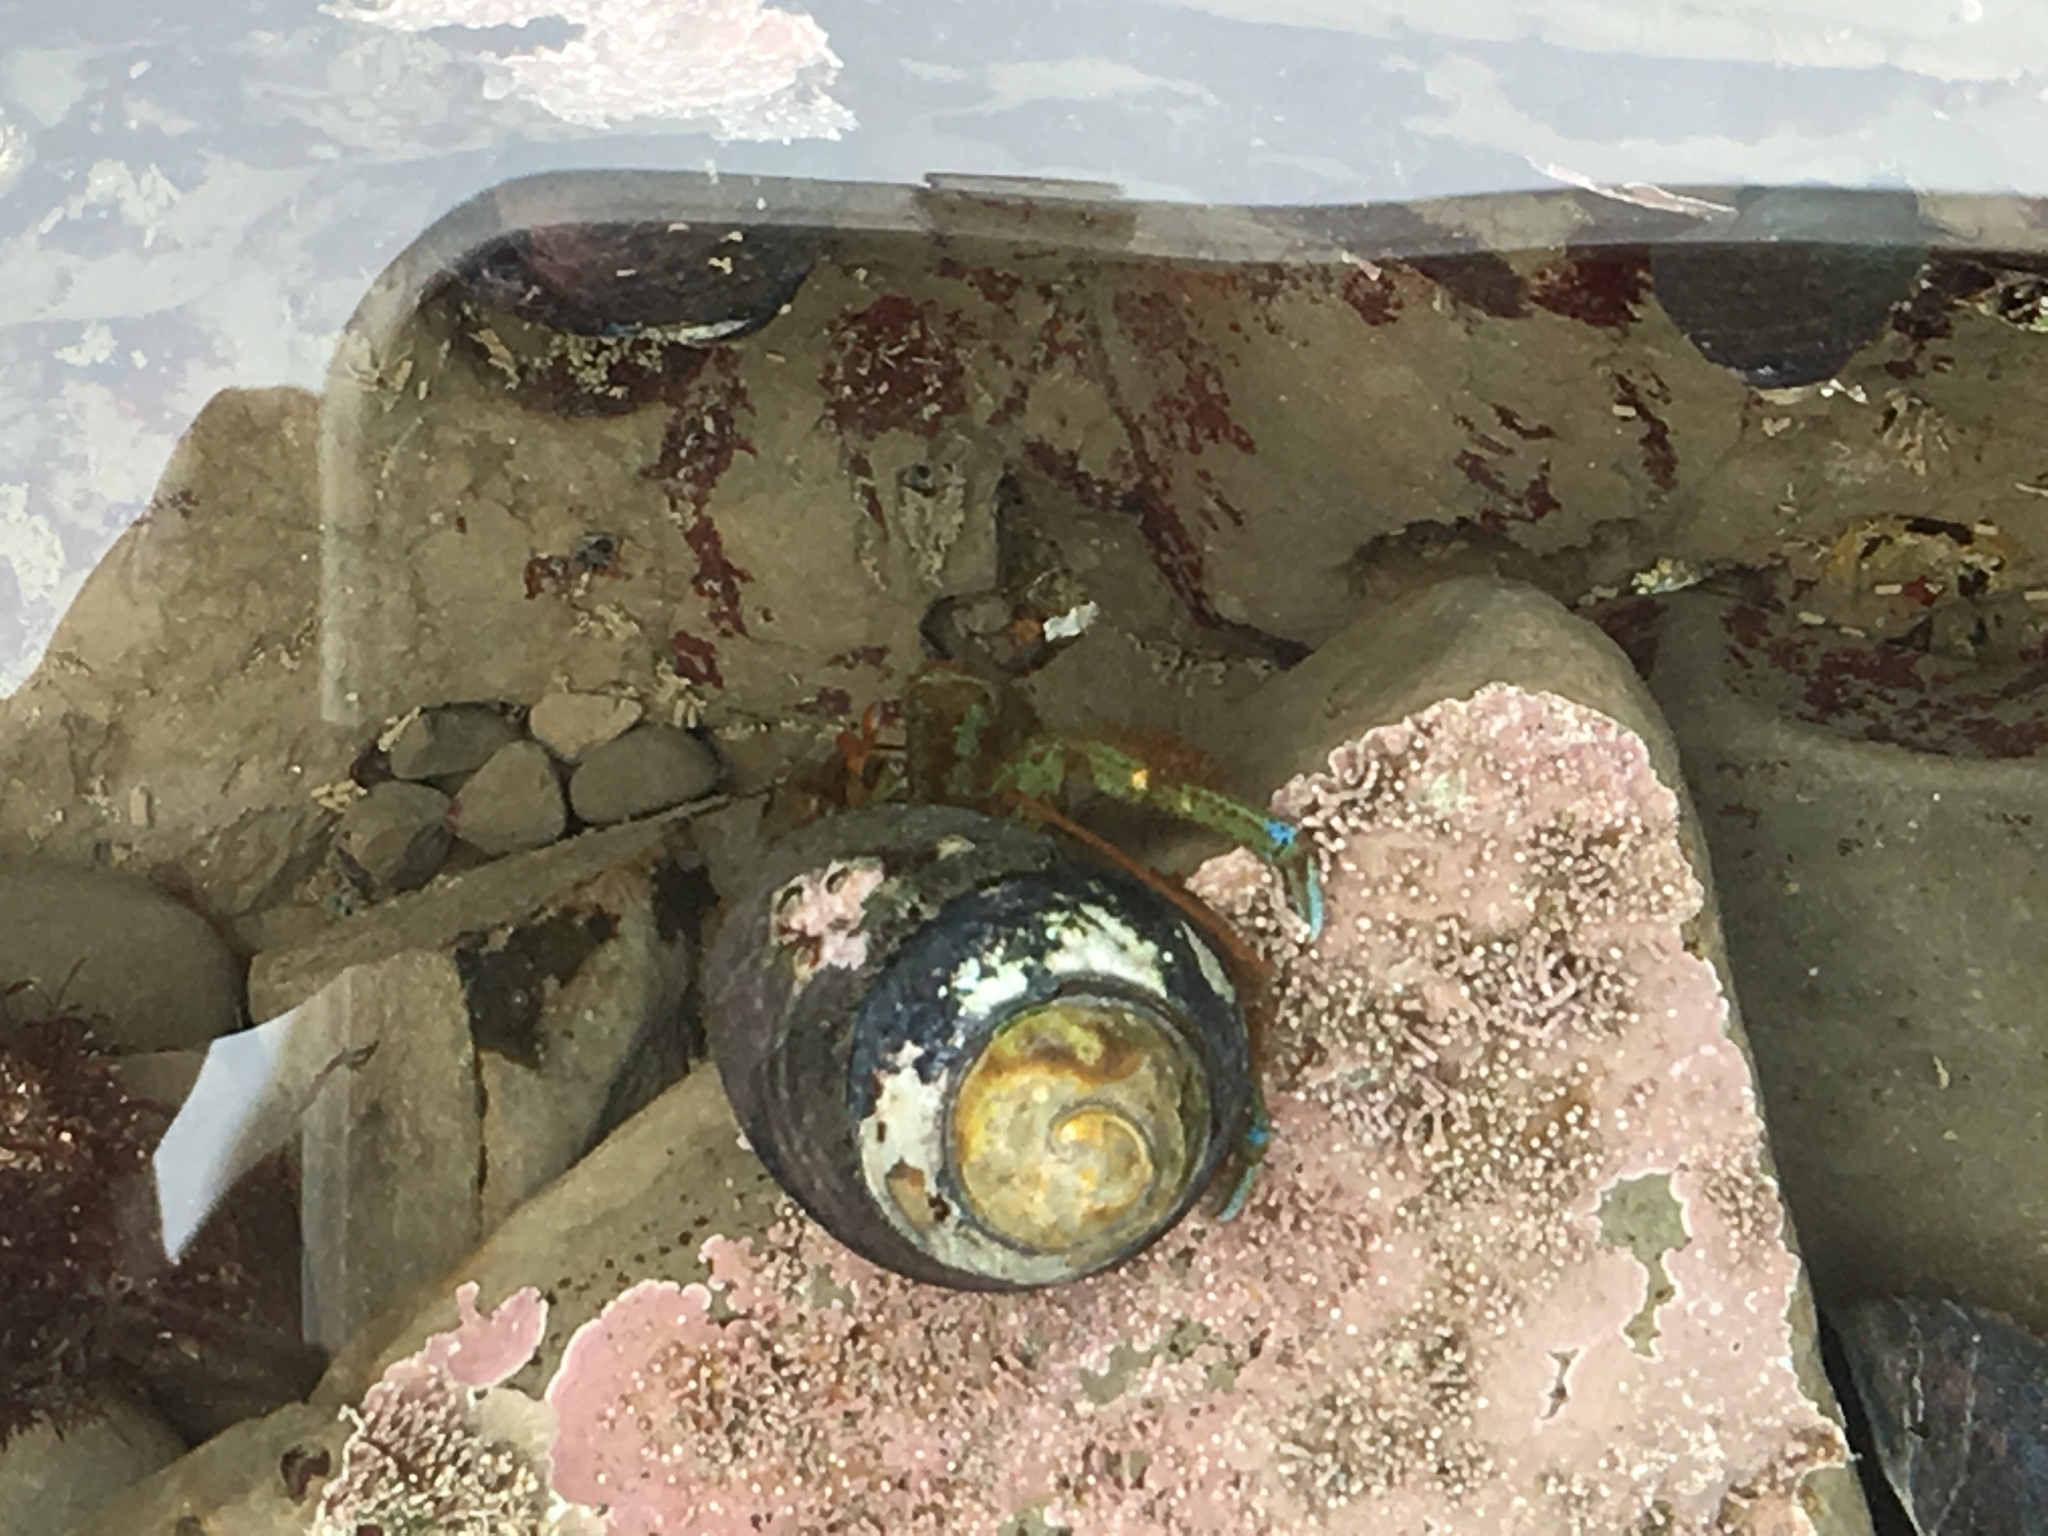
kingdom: Animalia
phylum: Arthropoda
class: Malacostraca
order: Decapoda
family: Paguridae
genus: Pagurus
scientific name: Pagurus samuelis
